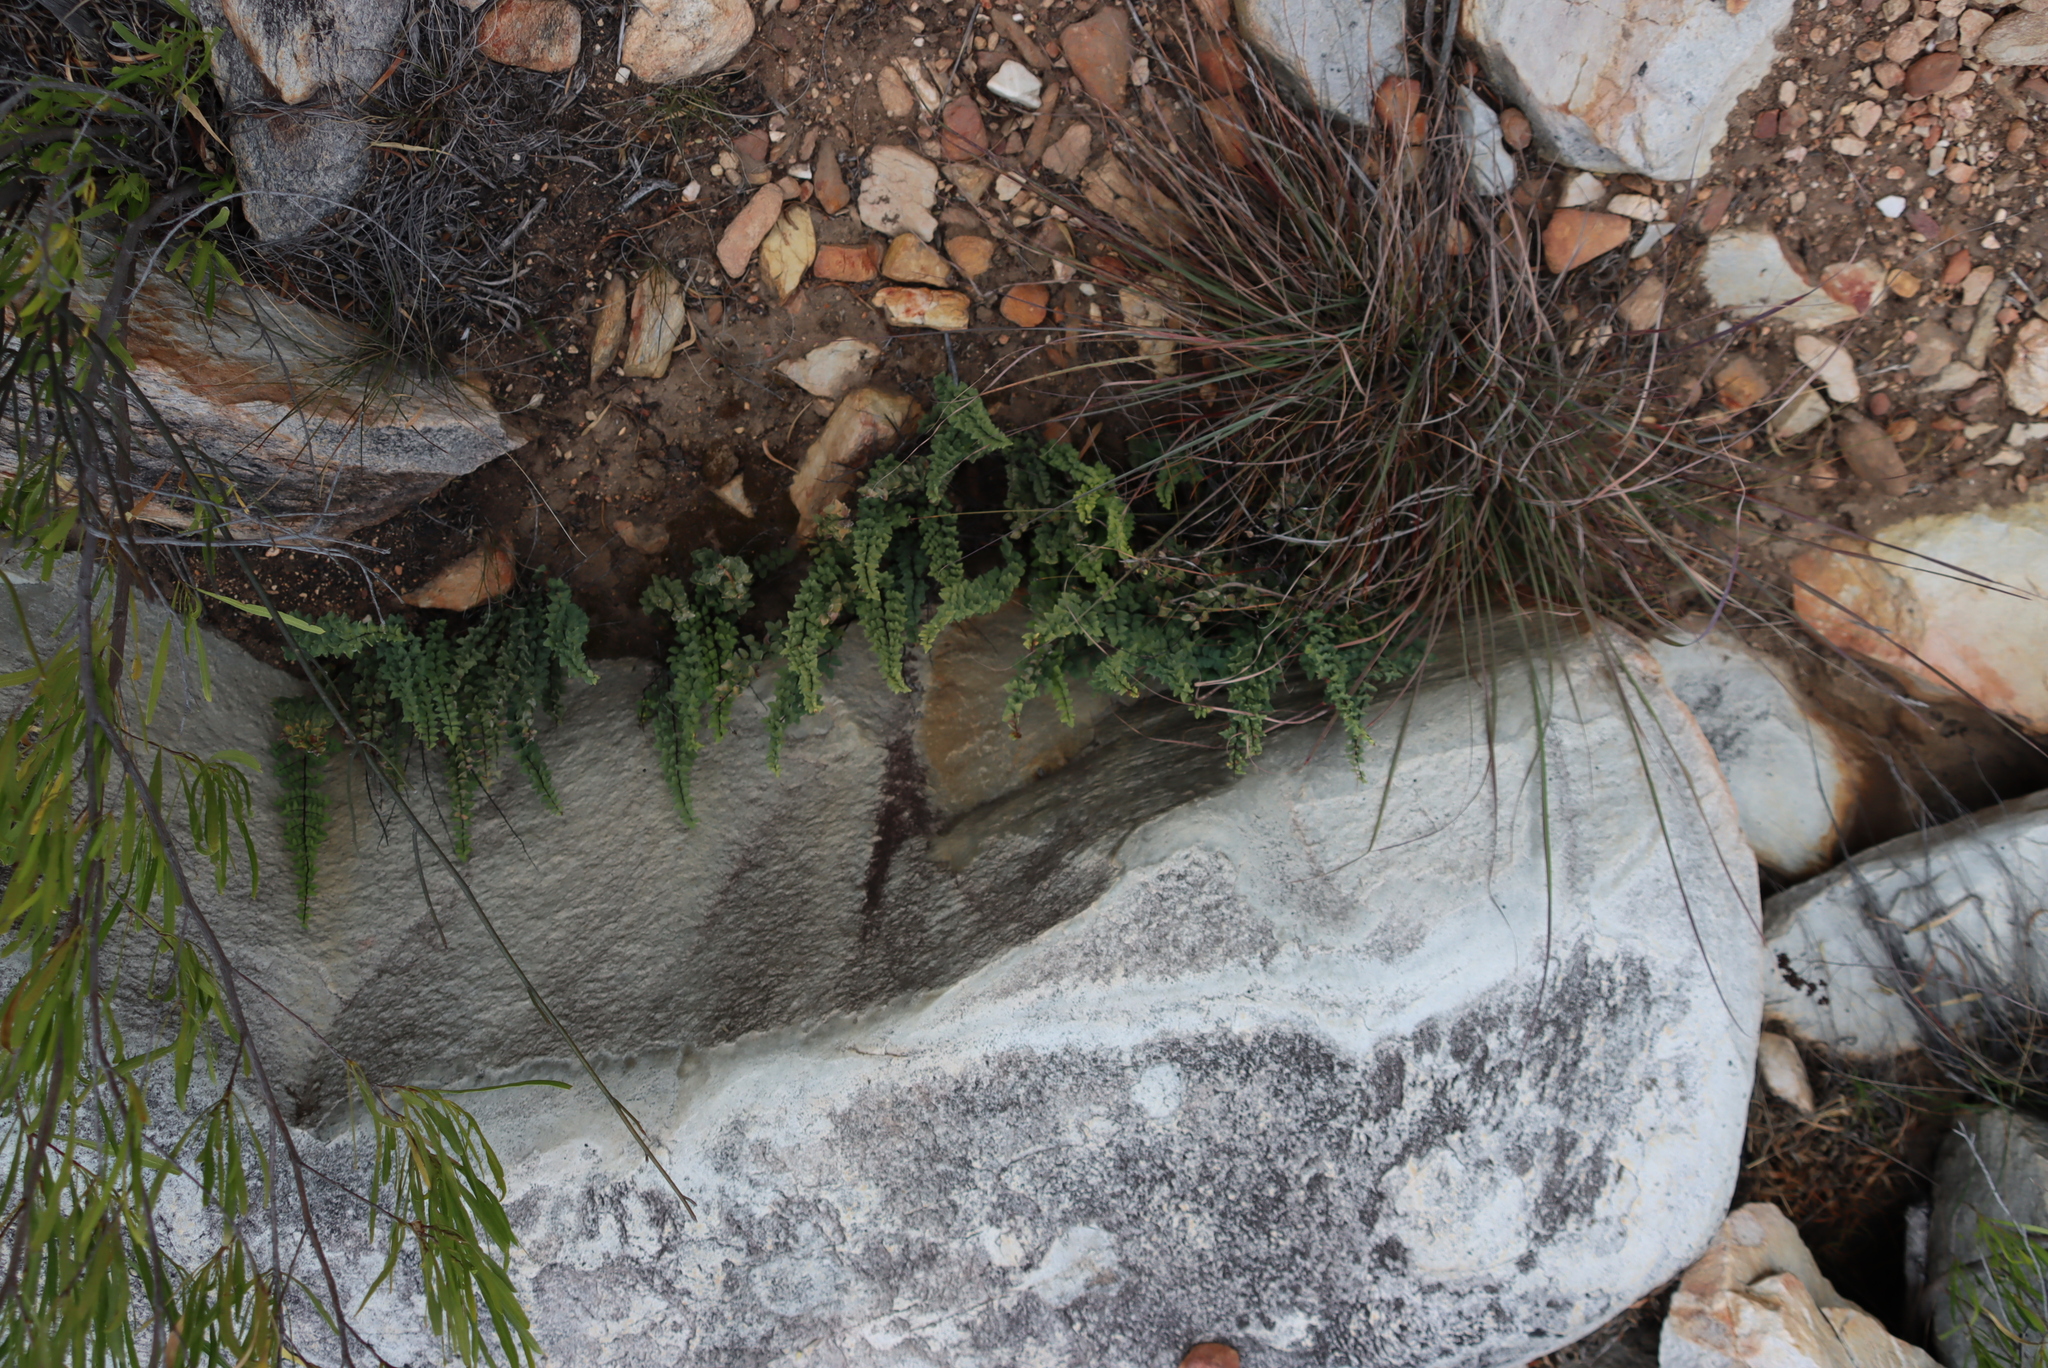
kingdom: Plantae
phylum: Tracheophyta
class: Polypodiopsida
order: Polypodiales
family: Pteridaceae
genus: Pellaea
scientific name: Pellaea calomelanos
